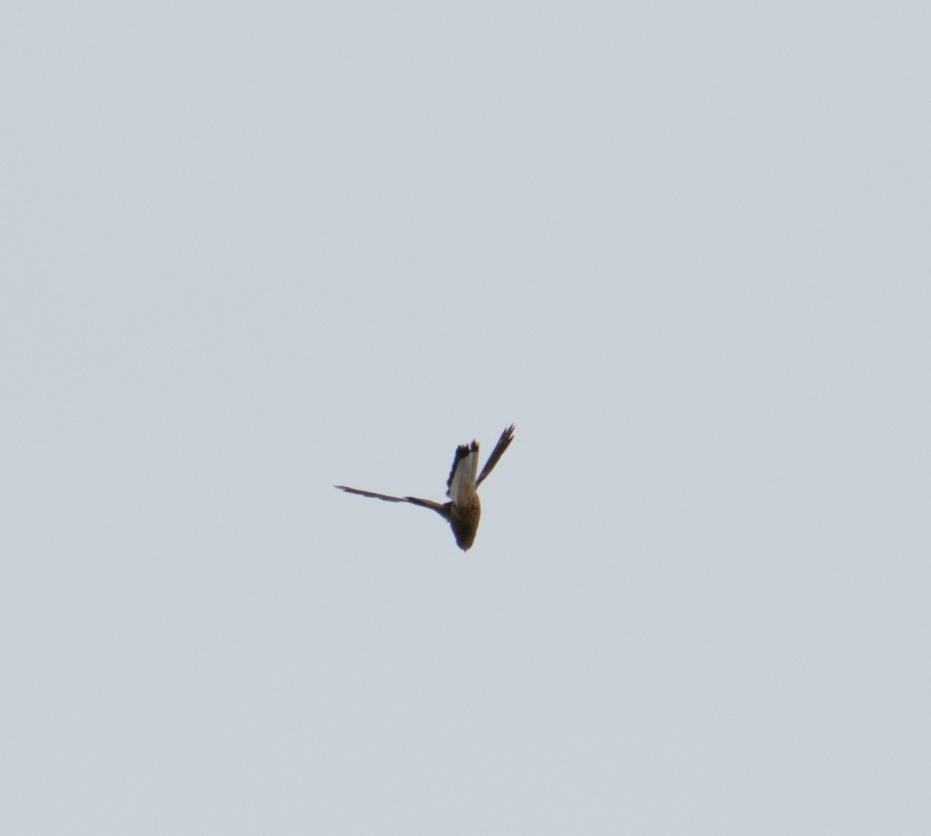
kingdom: Animalia
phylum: Chordata
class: Aves
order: Falconiformes
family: Falconidae
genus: Falco
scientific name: Falco tinnunculus
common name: Common kestrel
